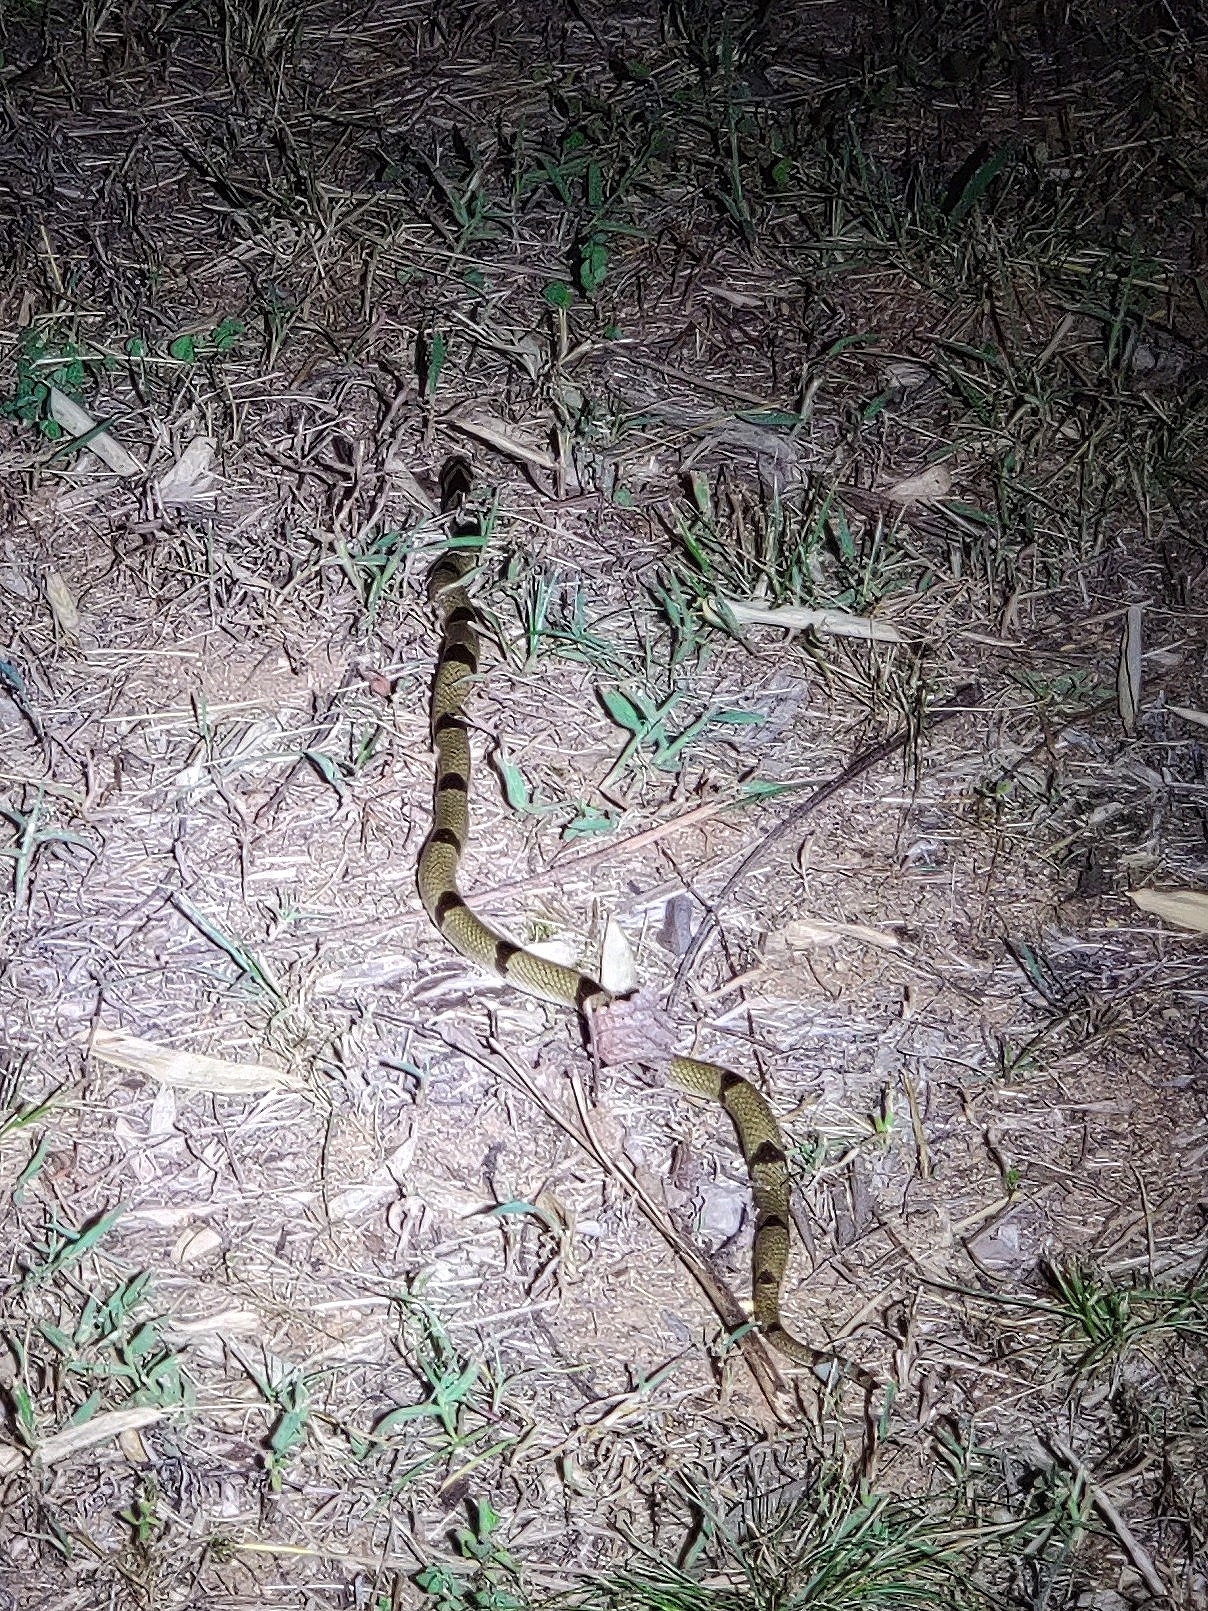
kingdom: Animalia
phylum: Chordata
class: Squamata
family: Colubridae
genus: Oligodon
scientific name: Oligodon arnensis
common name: Banded kukri
